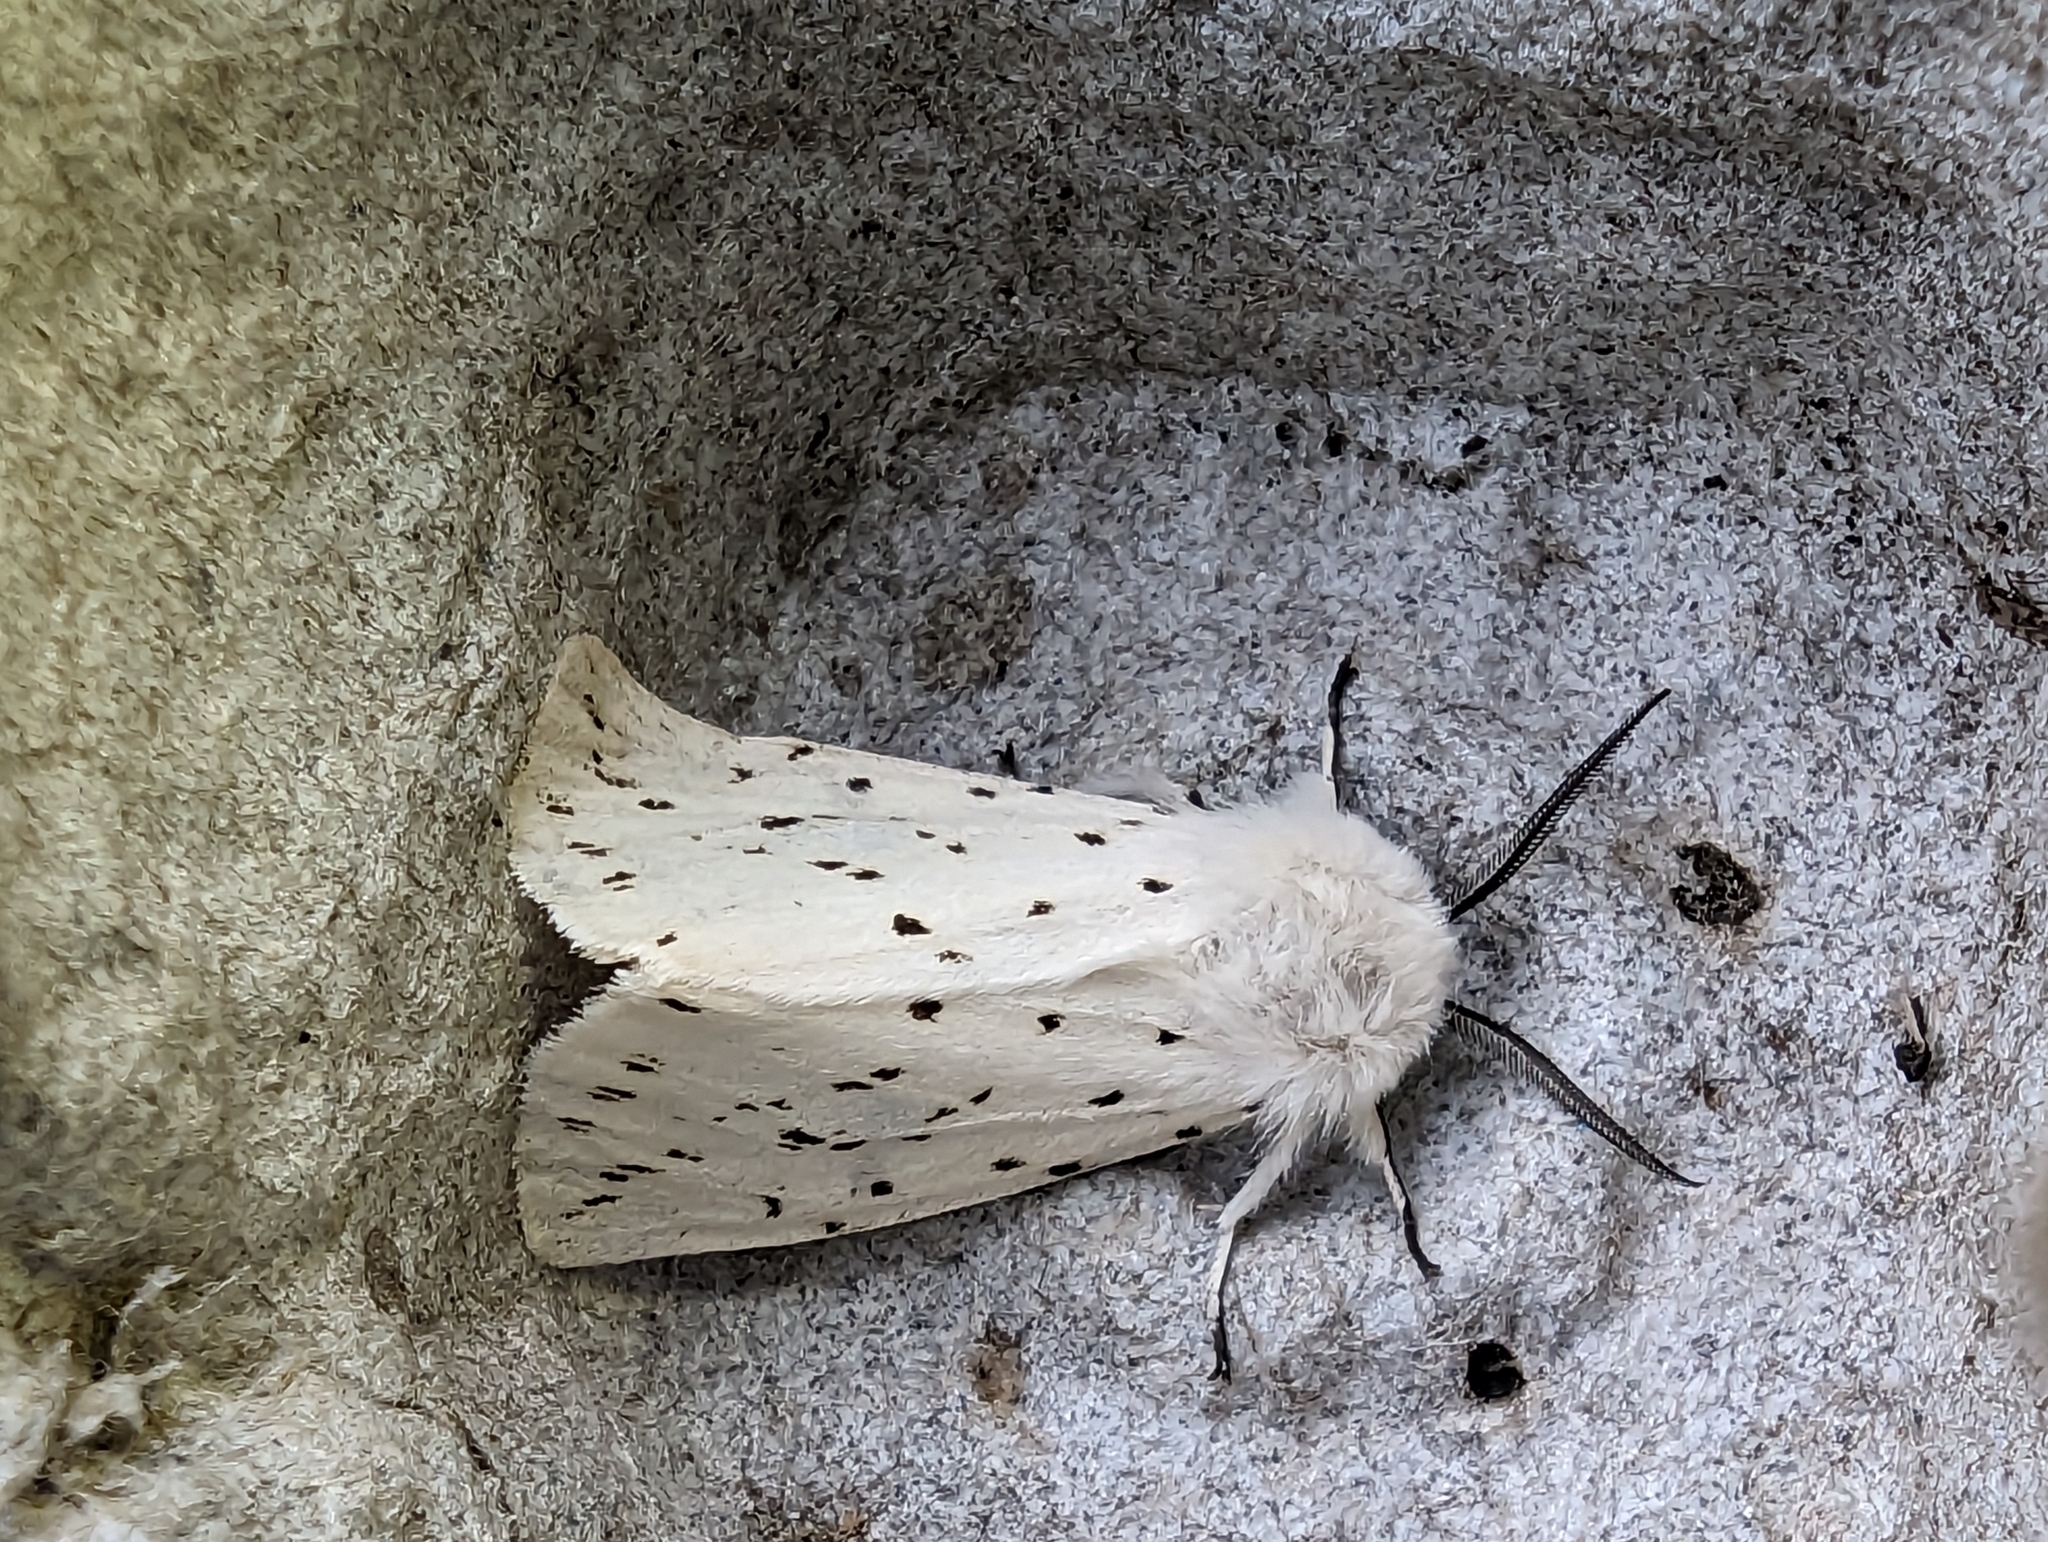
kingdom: Animalia
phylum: Arthropoda
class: Insecta
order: Lepidoptera
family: Erebidae
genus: Spilosoma
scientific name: Spilosoma lubricipeda
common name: White ermine
